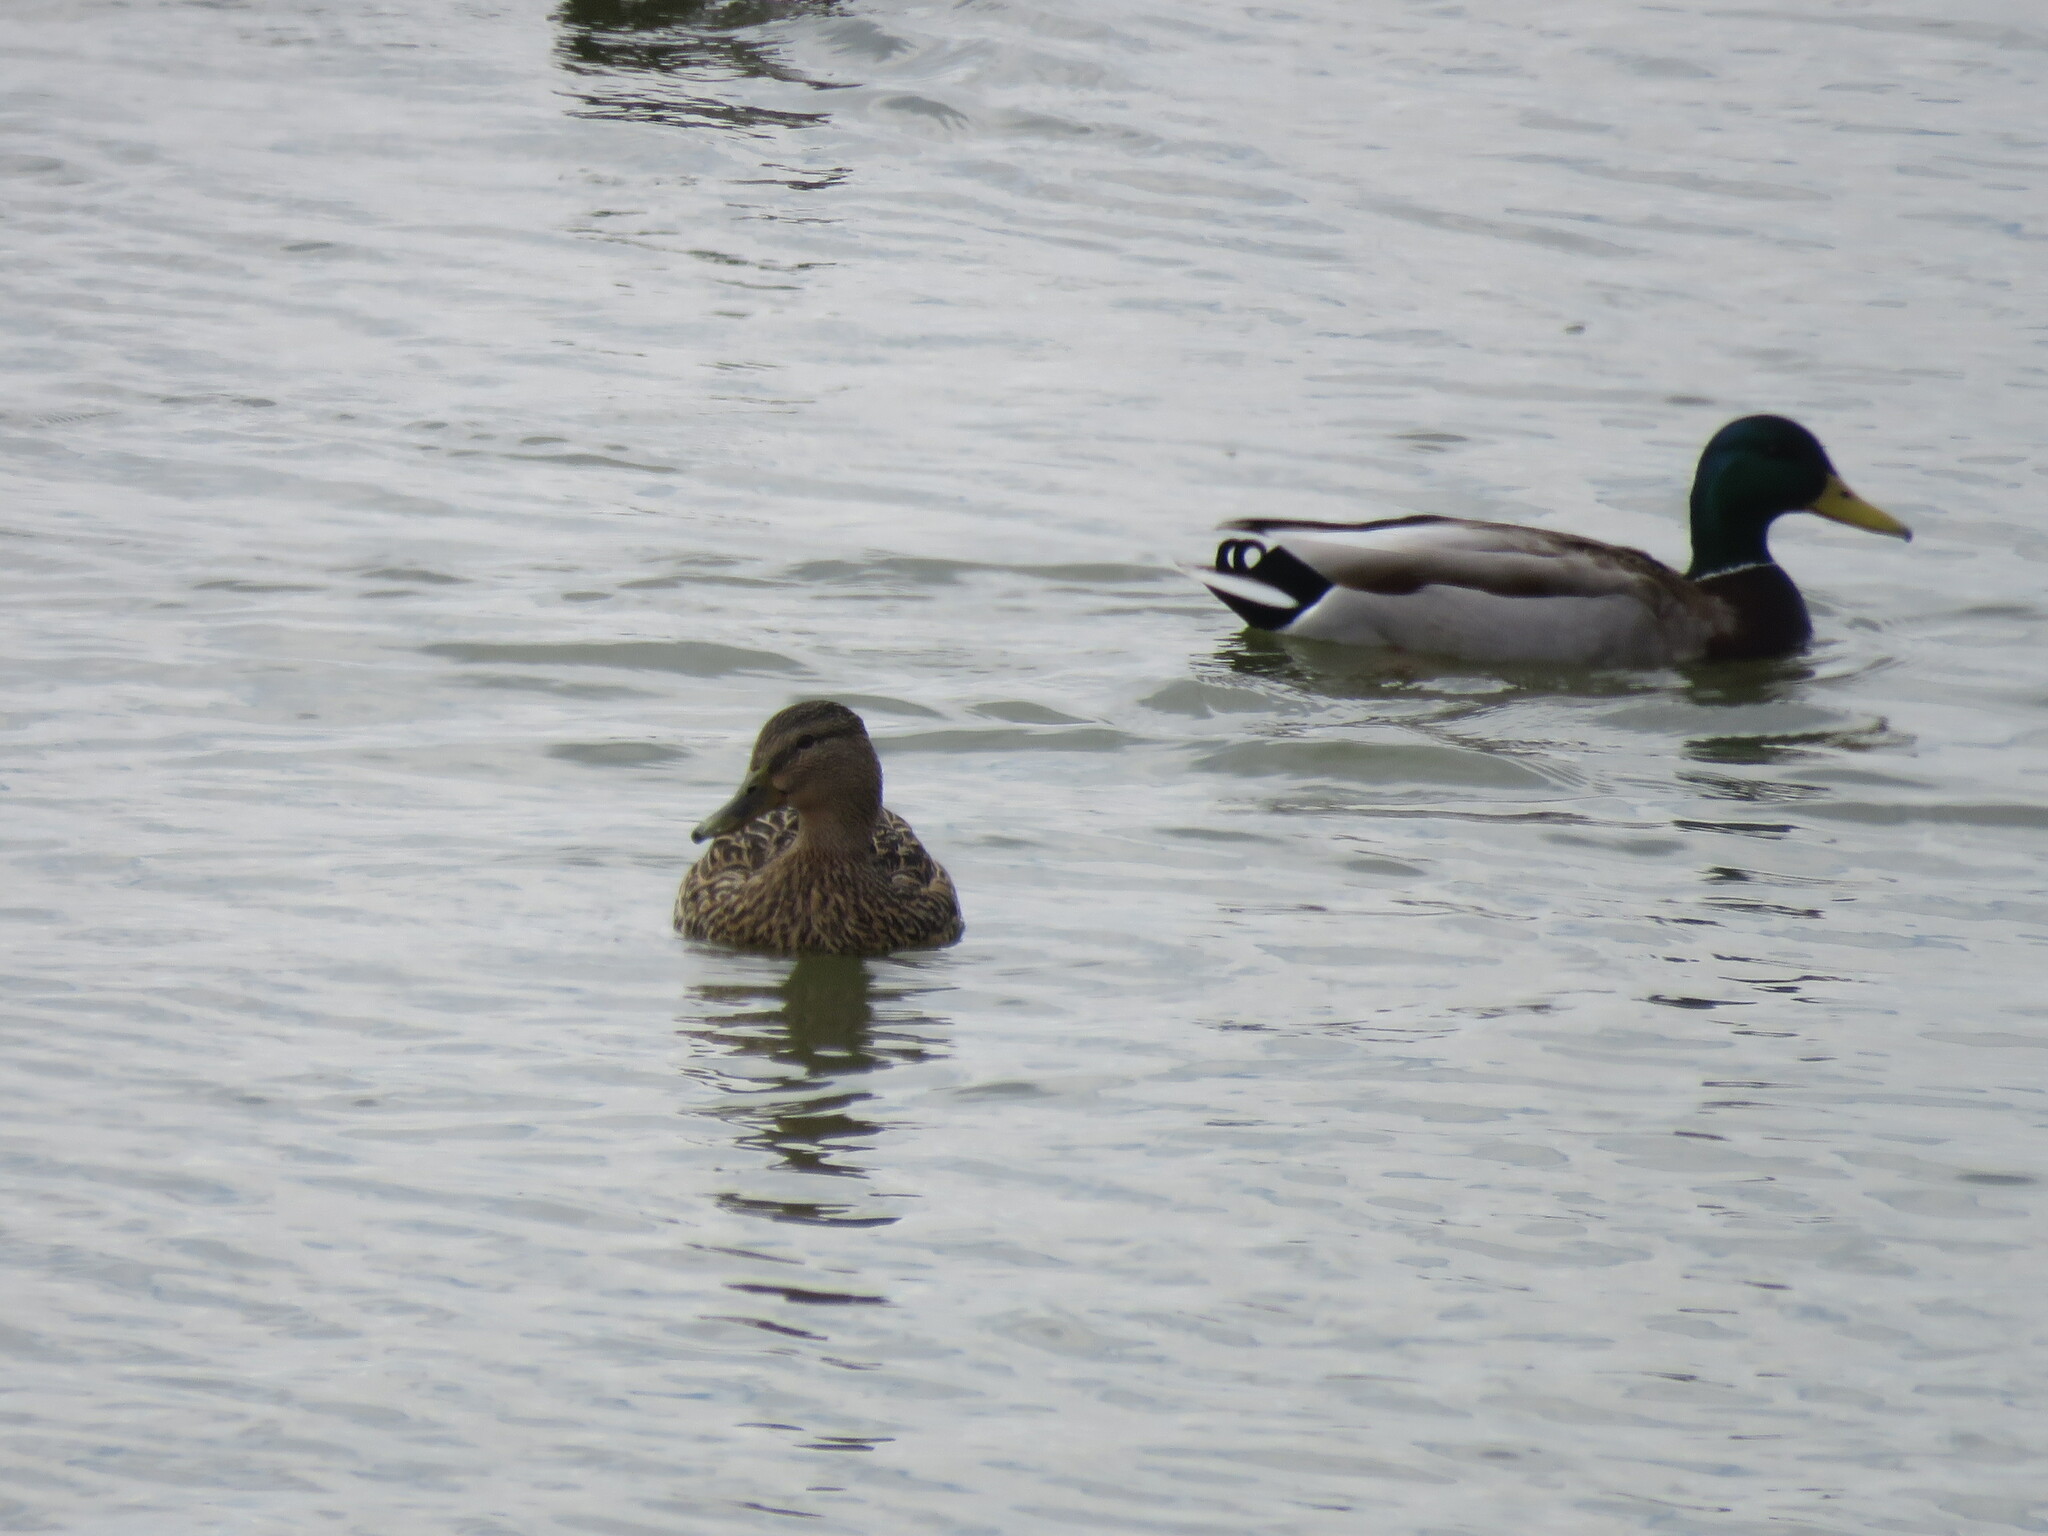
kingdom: Animalia
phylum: Chordata
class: Aves
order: Anseriformes
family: Anatidae
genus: Anas
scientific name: Anas platyrhynchos
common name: Mallard
